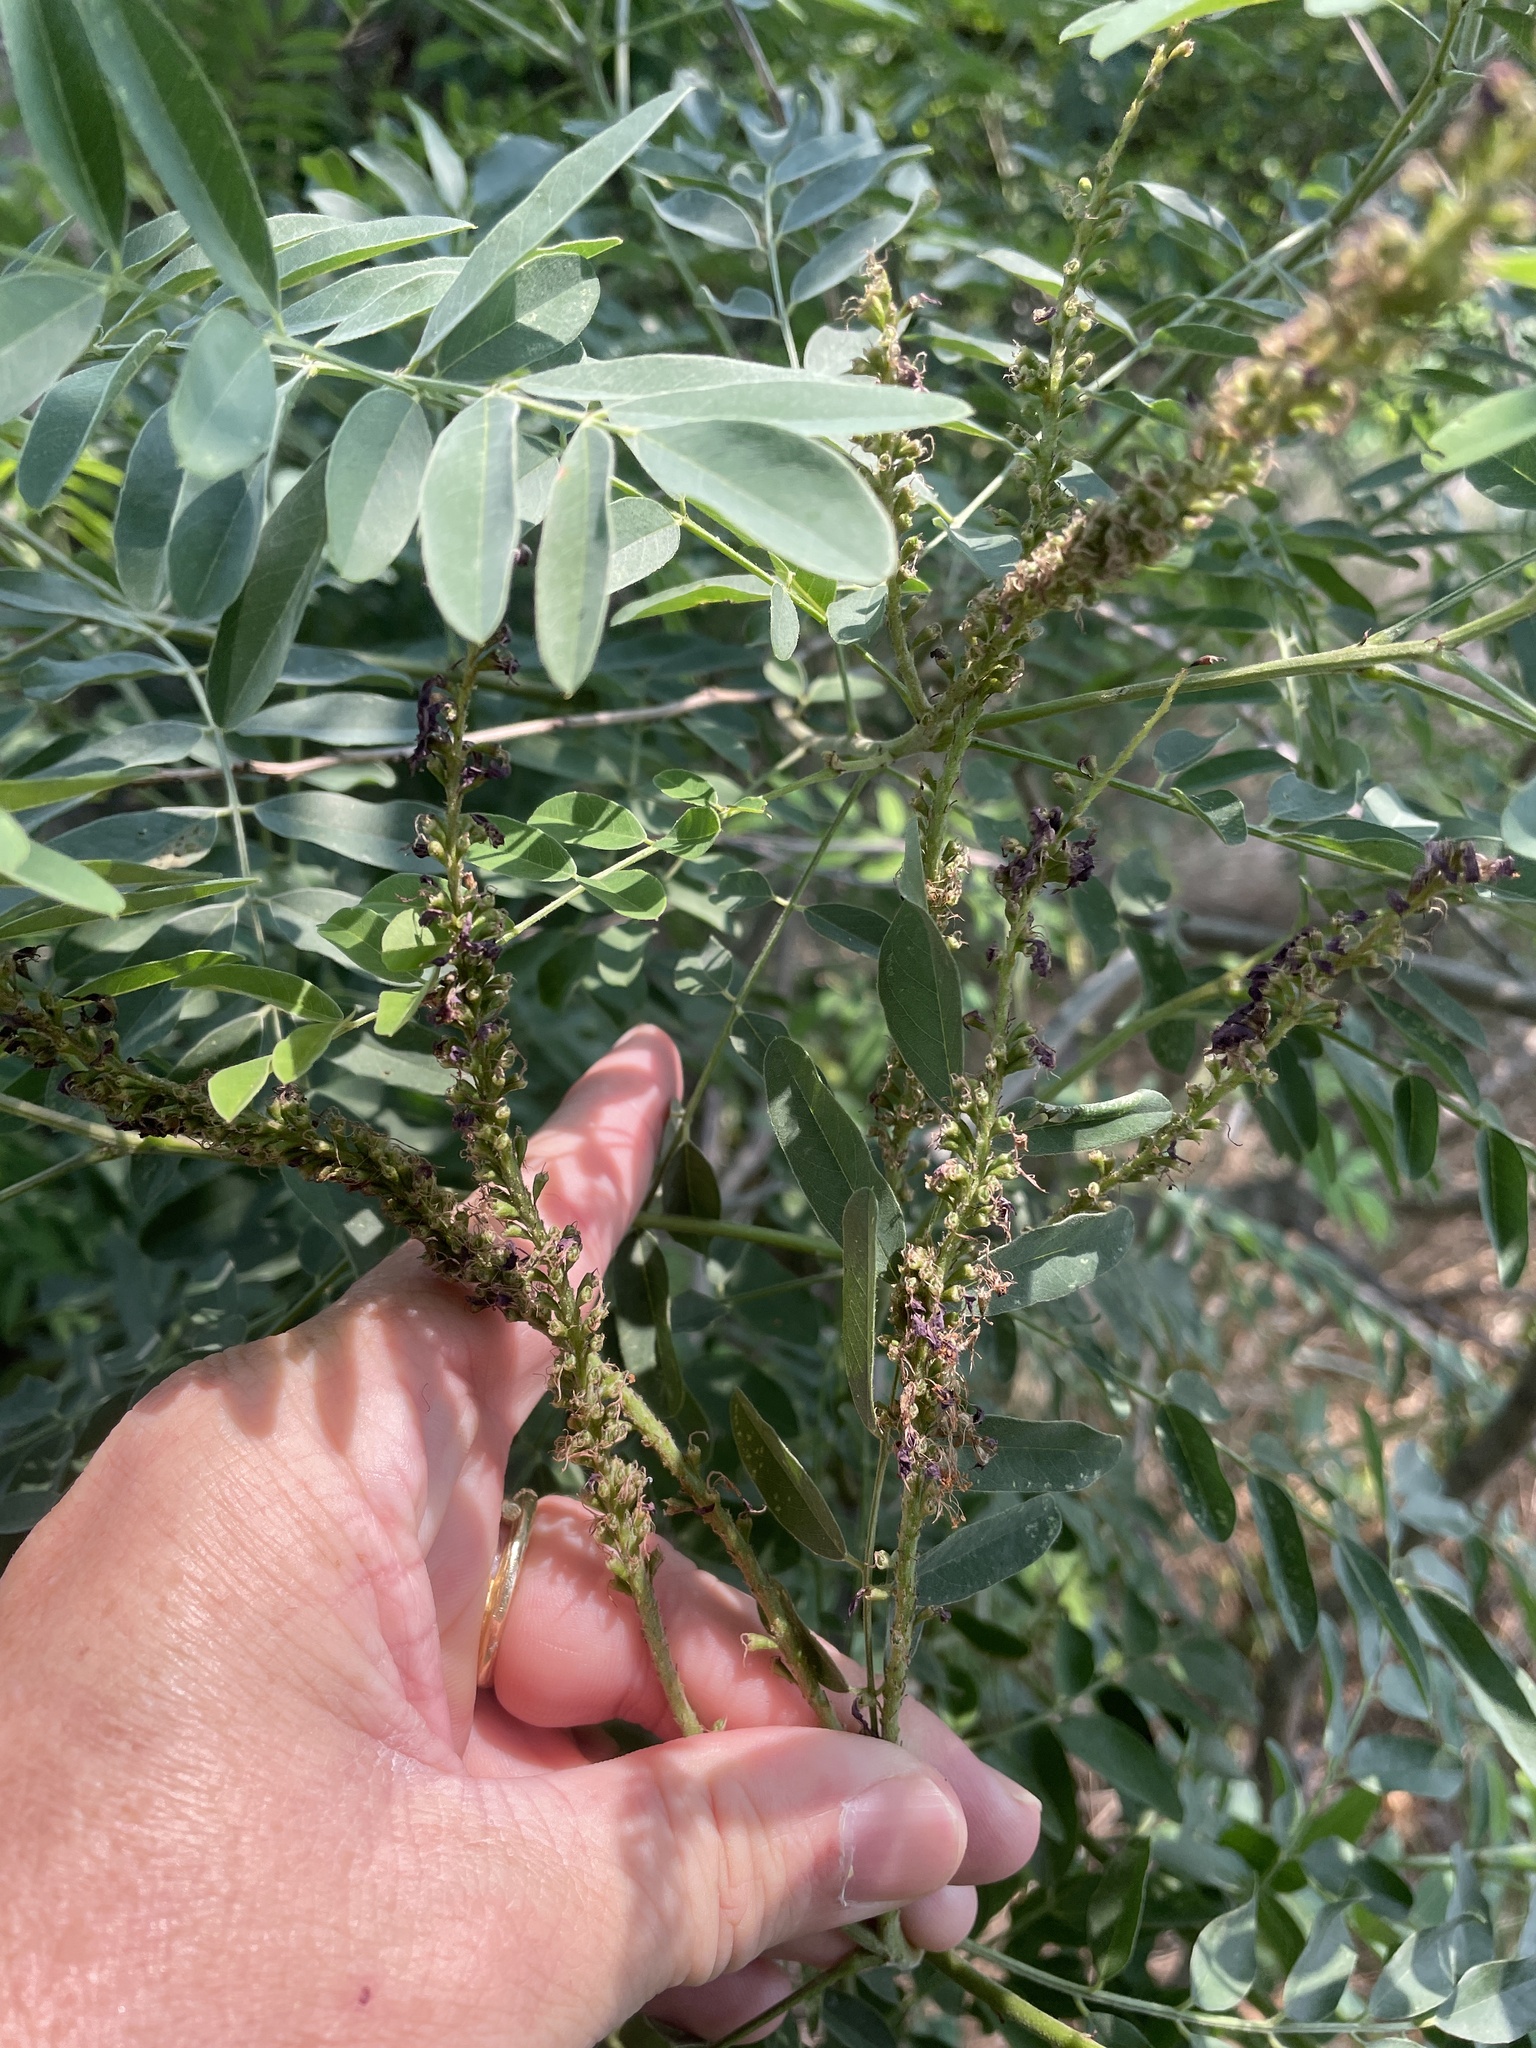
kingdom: Plantae
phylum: Tracheophyta
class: Magnoliopsida
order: Fabales
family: Fabaceae
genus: Amorpha
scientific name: Amorpha fruticosa
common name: False indigo
